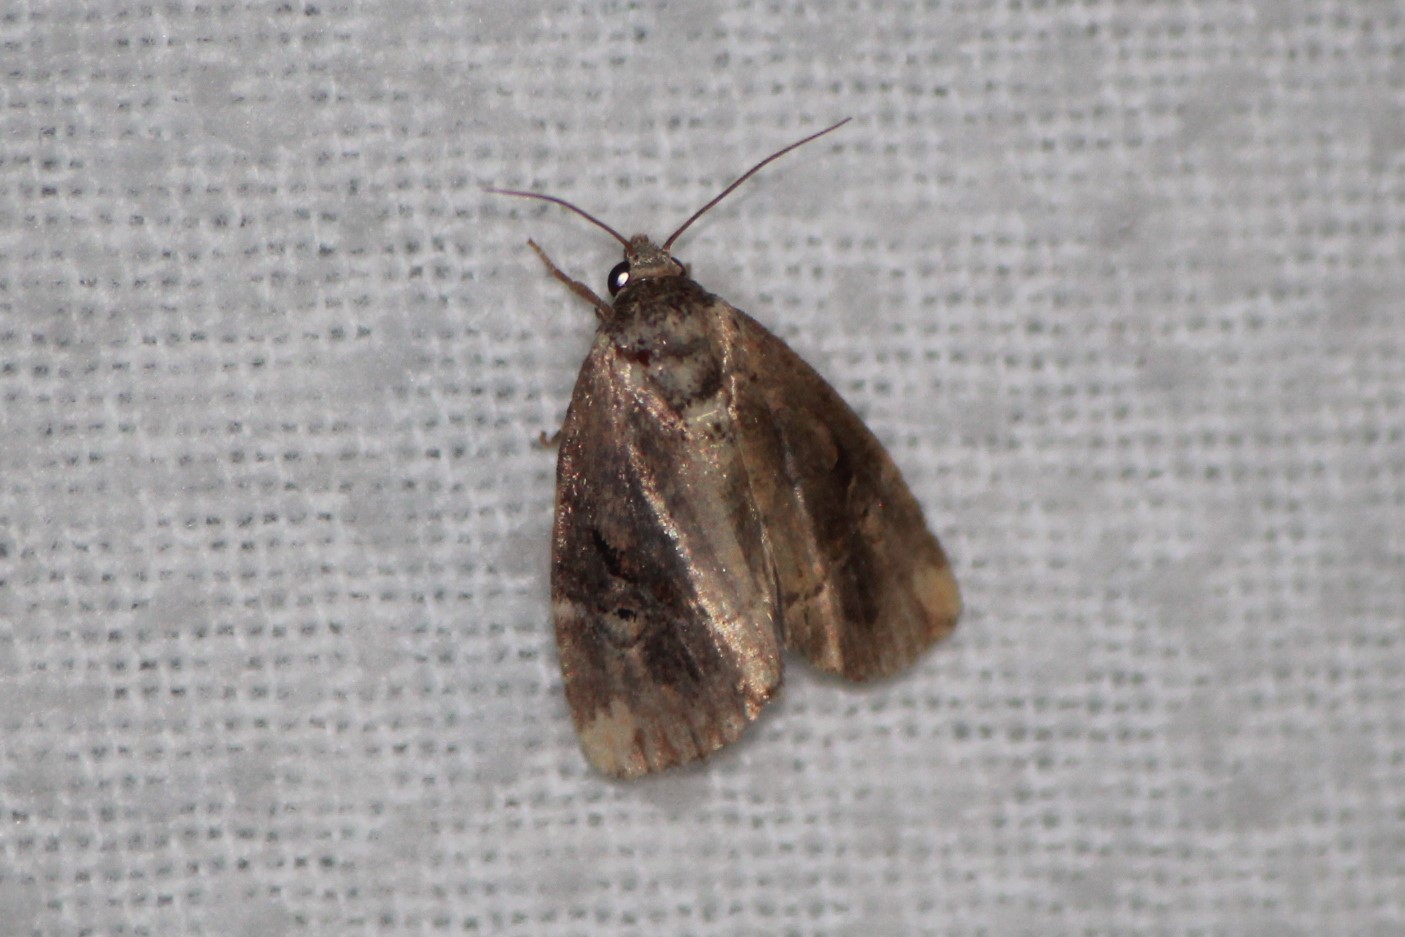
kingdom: Animalia
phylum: Arthropoda
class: Insecta
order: Lepidoptera
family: Noctuidae
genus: Elaphria
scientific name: Elaphria versicolor
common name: Fir harlequin
